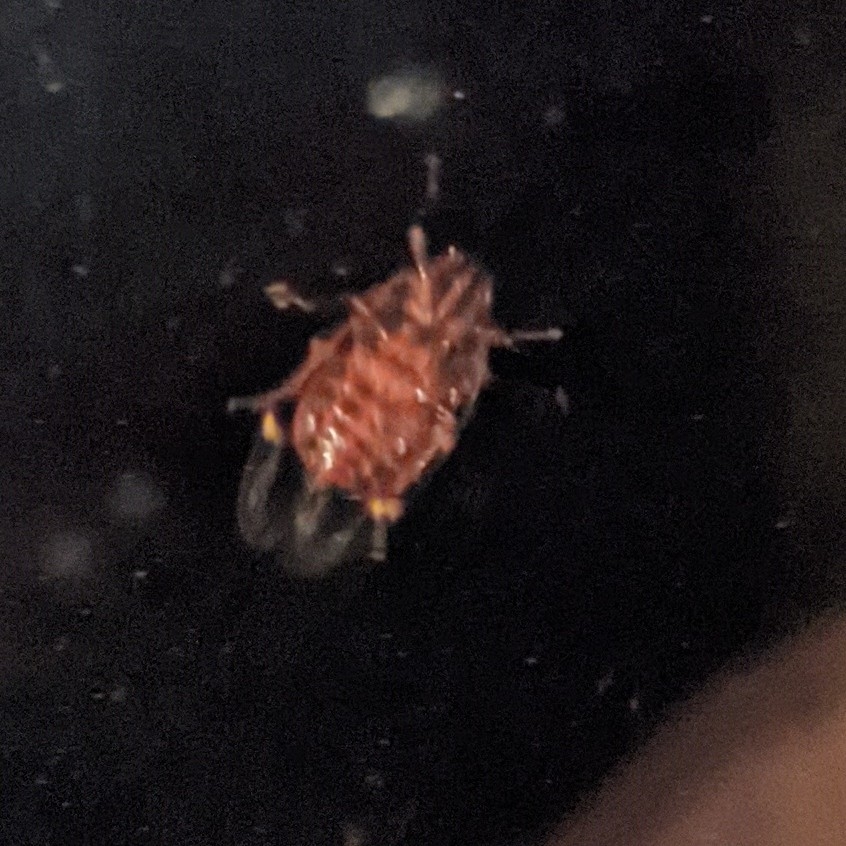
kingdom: Animalia
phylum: Arthropoda
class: Insecta
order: Hemiptera
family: Cercopidae
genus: Prosapia
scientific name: Prosapia bicincta
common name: Twolined spittlebug
